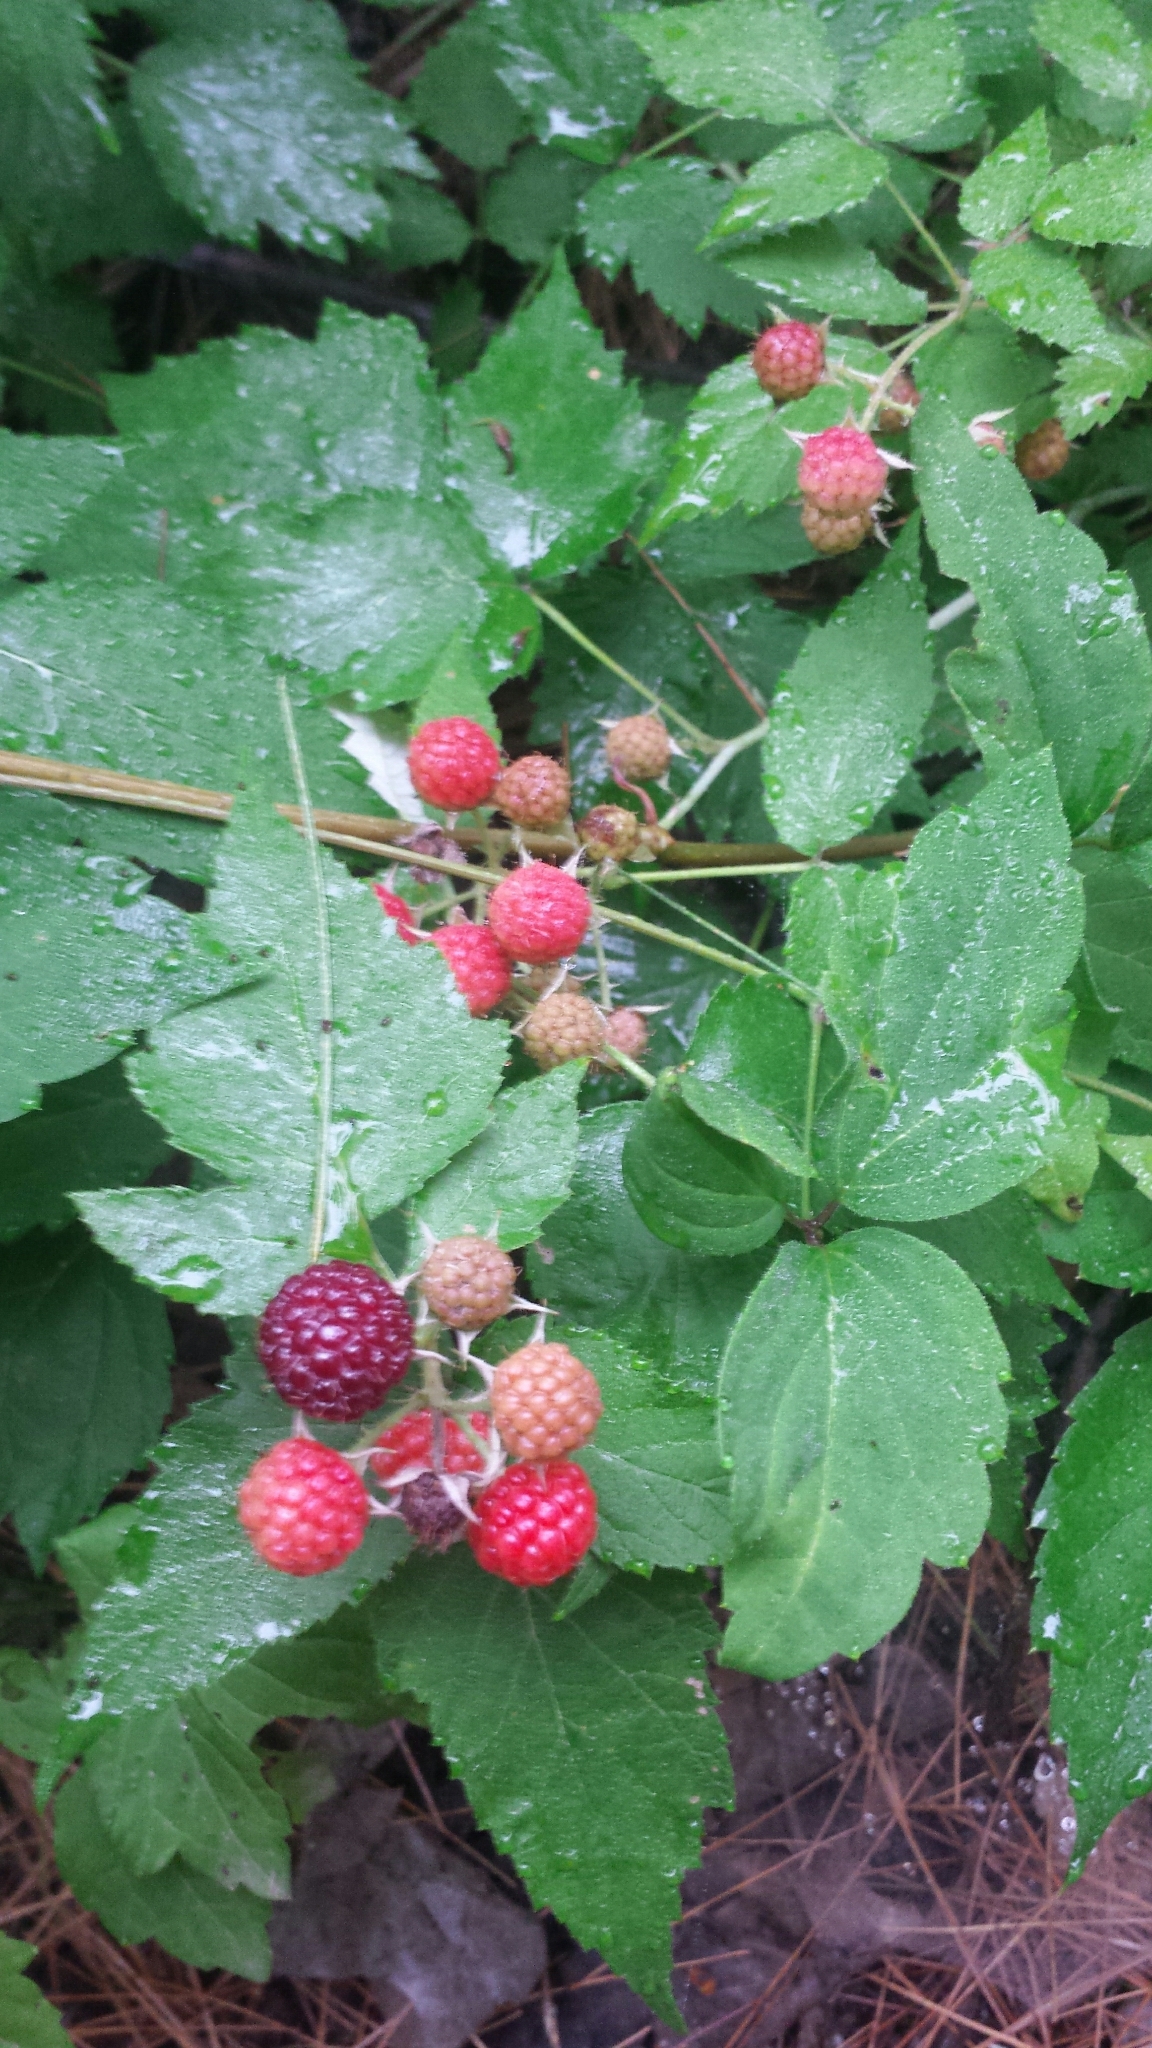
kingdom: Plantae
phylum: Tracheophyta
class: Magnoliopsida
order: Rosales
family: Rosaceae
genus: Rubus
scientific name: Rubus occidentalis
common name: Black raspberry
